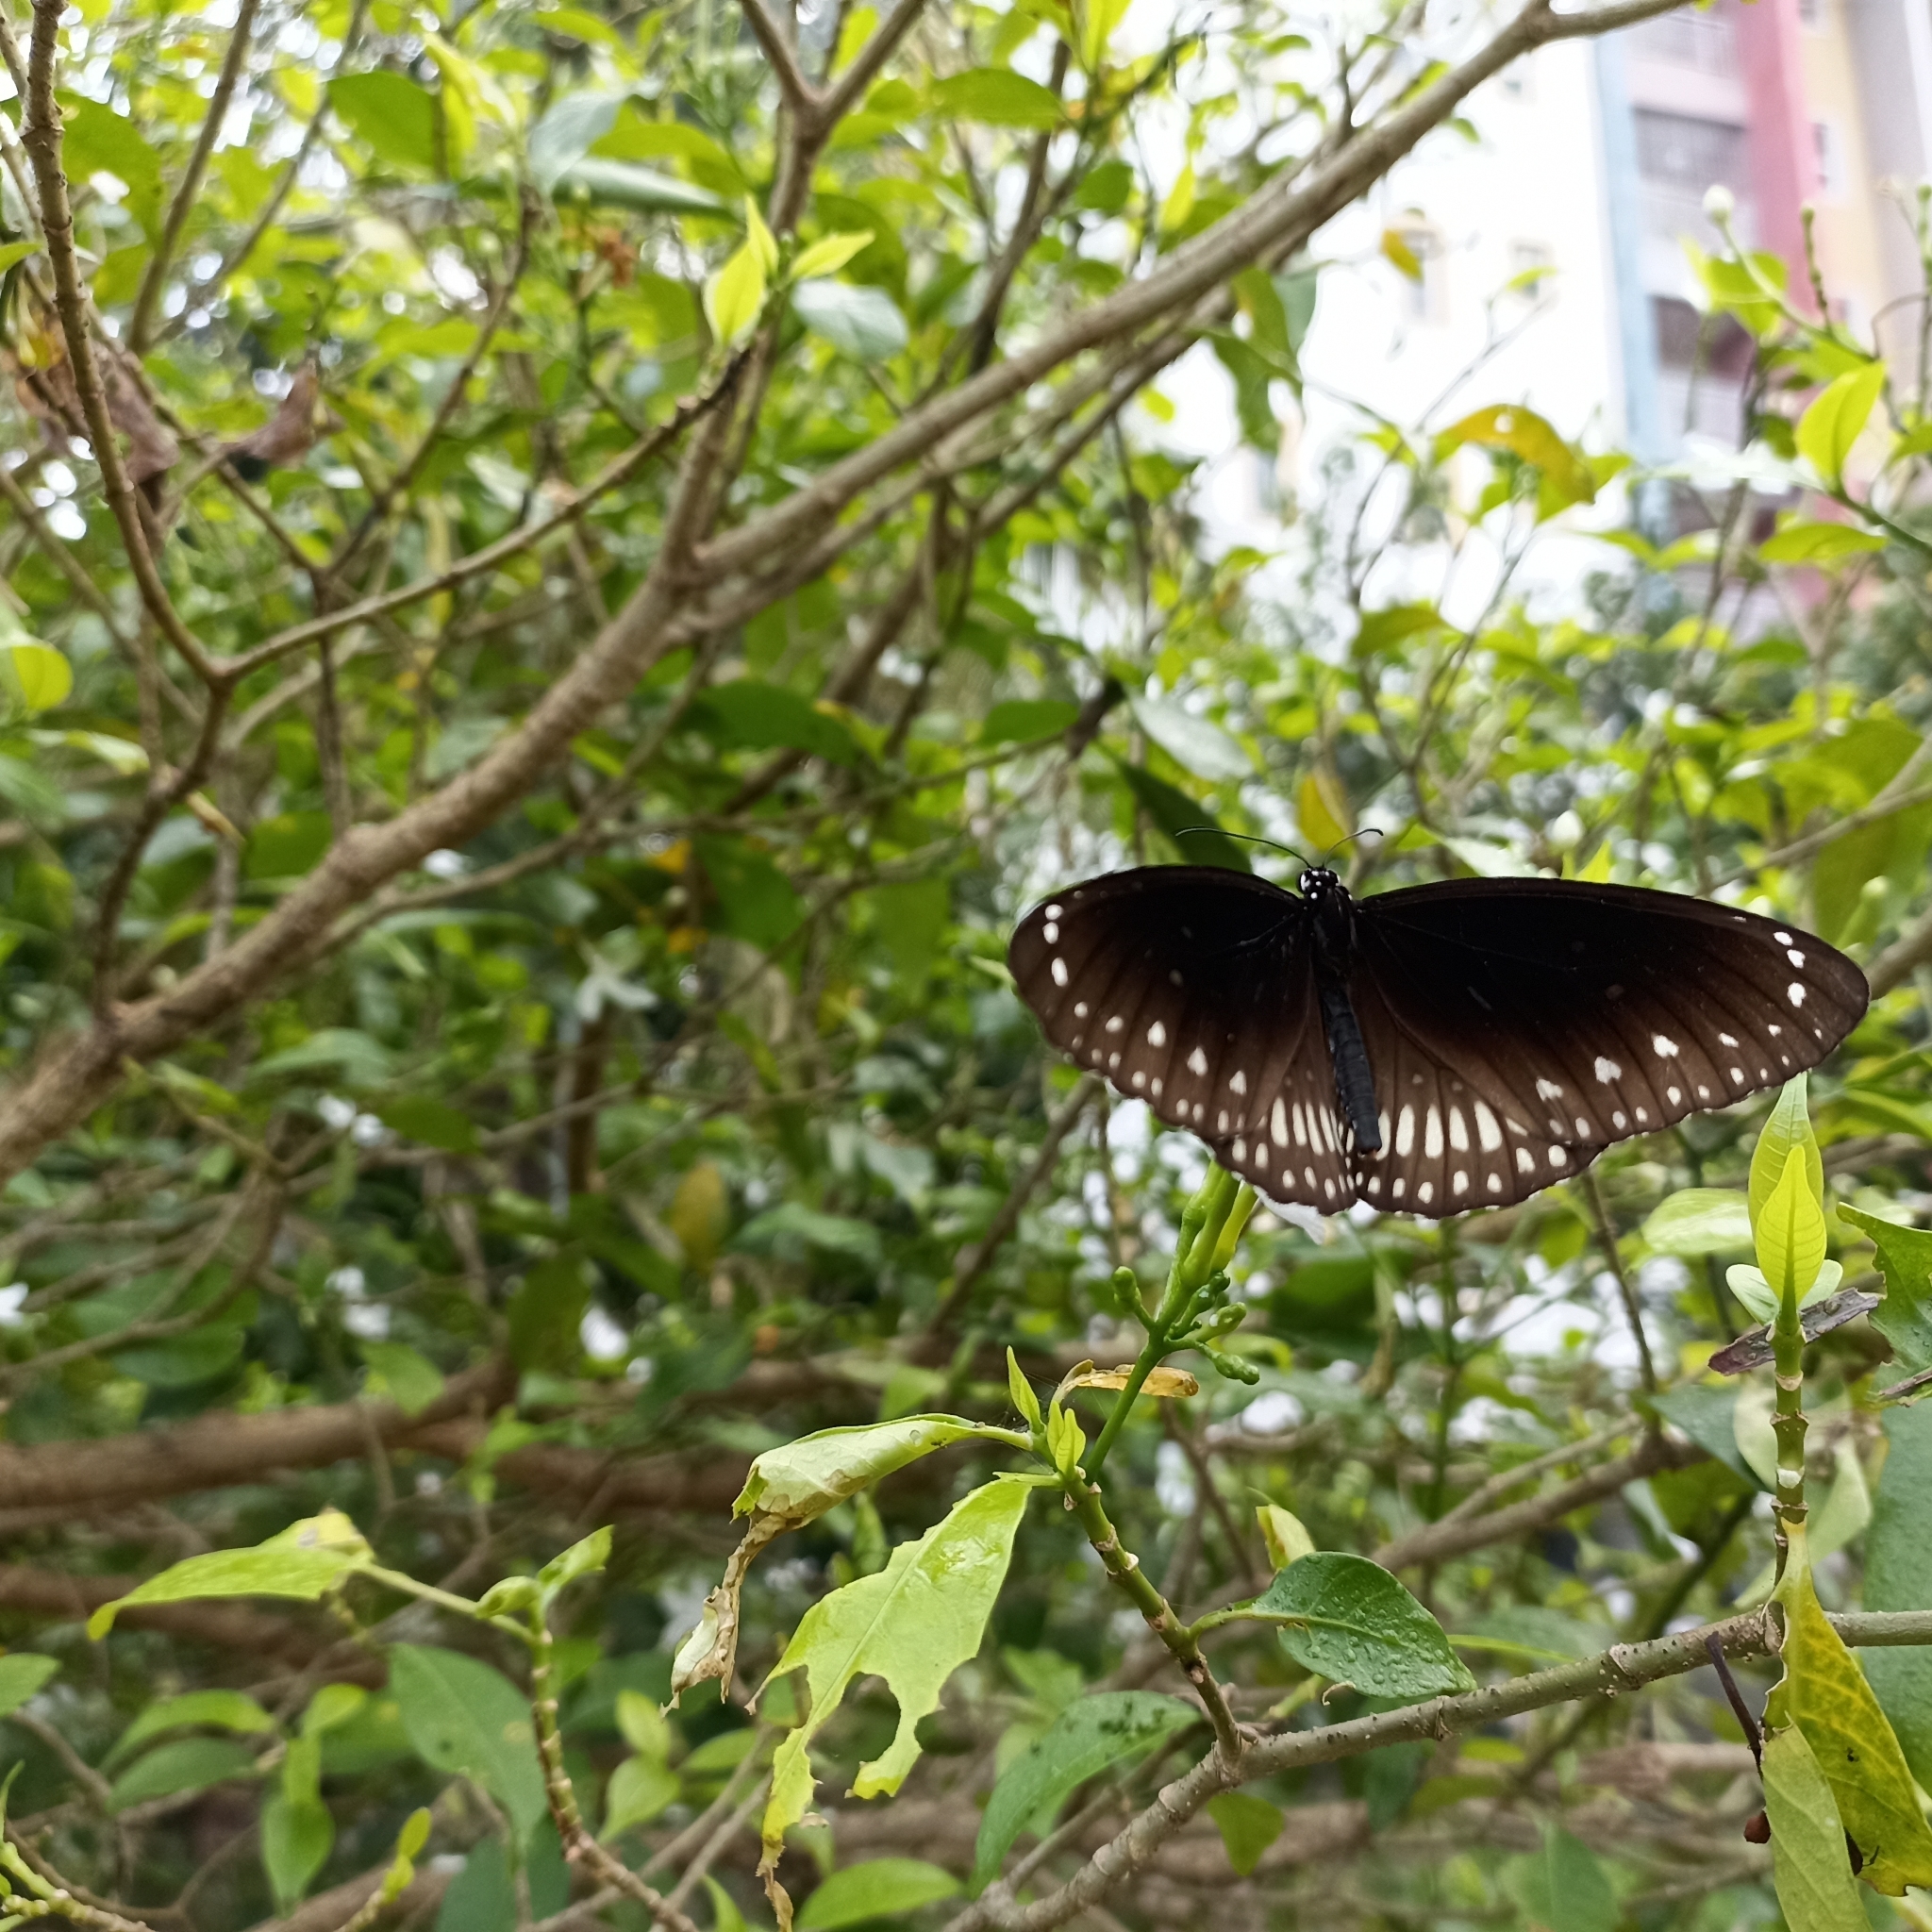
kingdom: Animalia
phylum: Arthropoda
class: Insecta
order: Lepidoptera
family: Nymphalidae
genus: Euploea
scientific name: Euploea core
